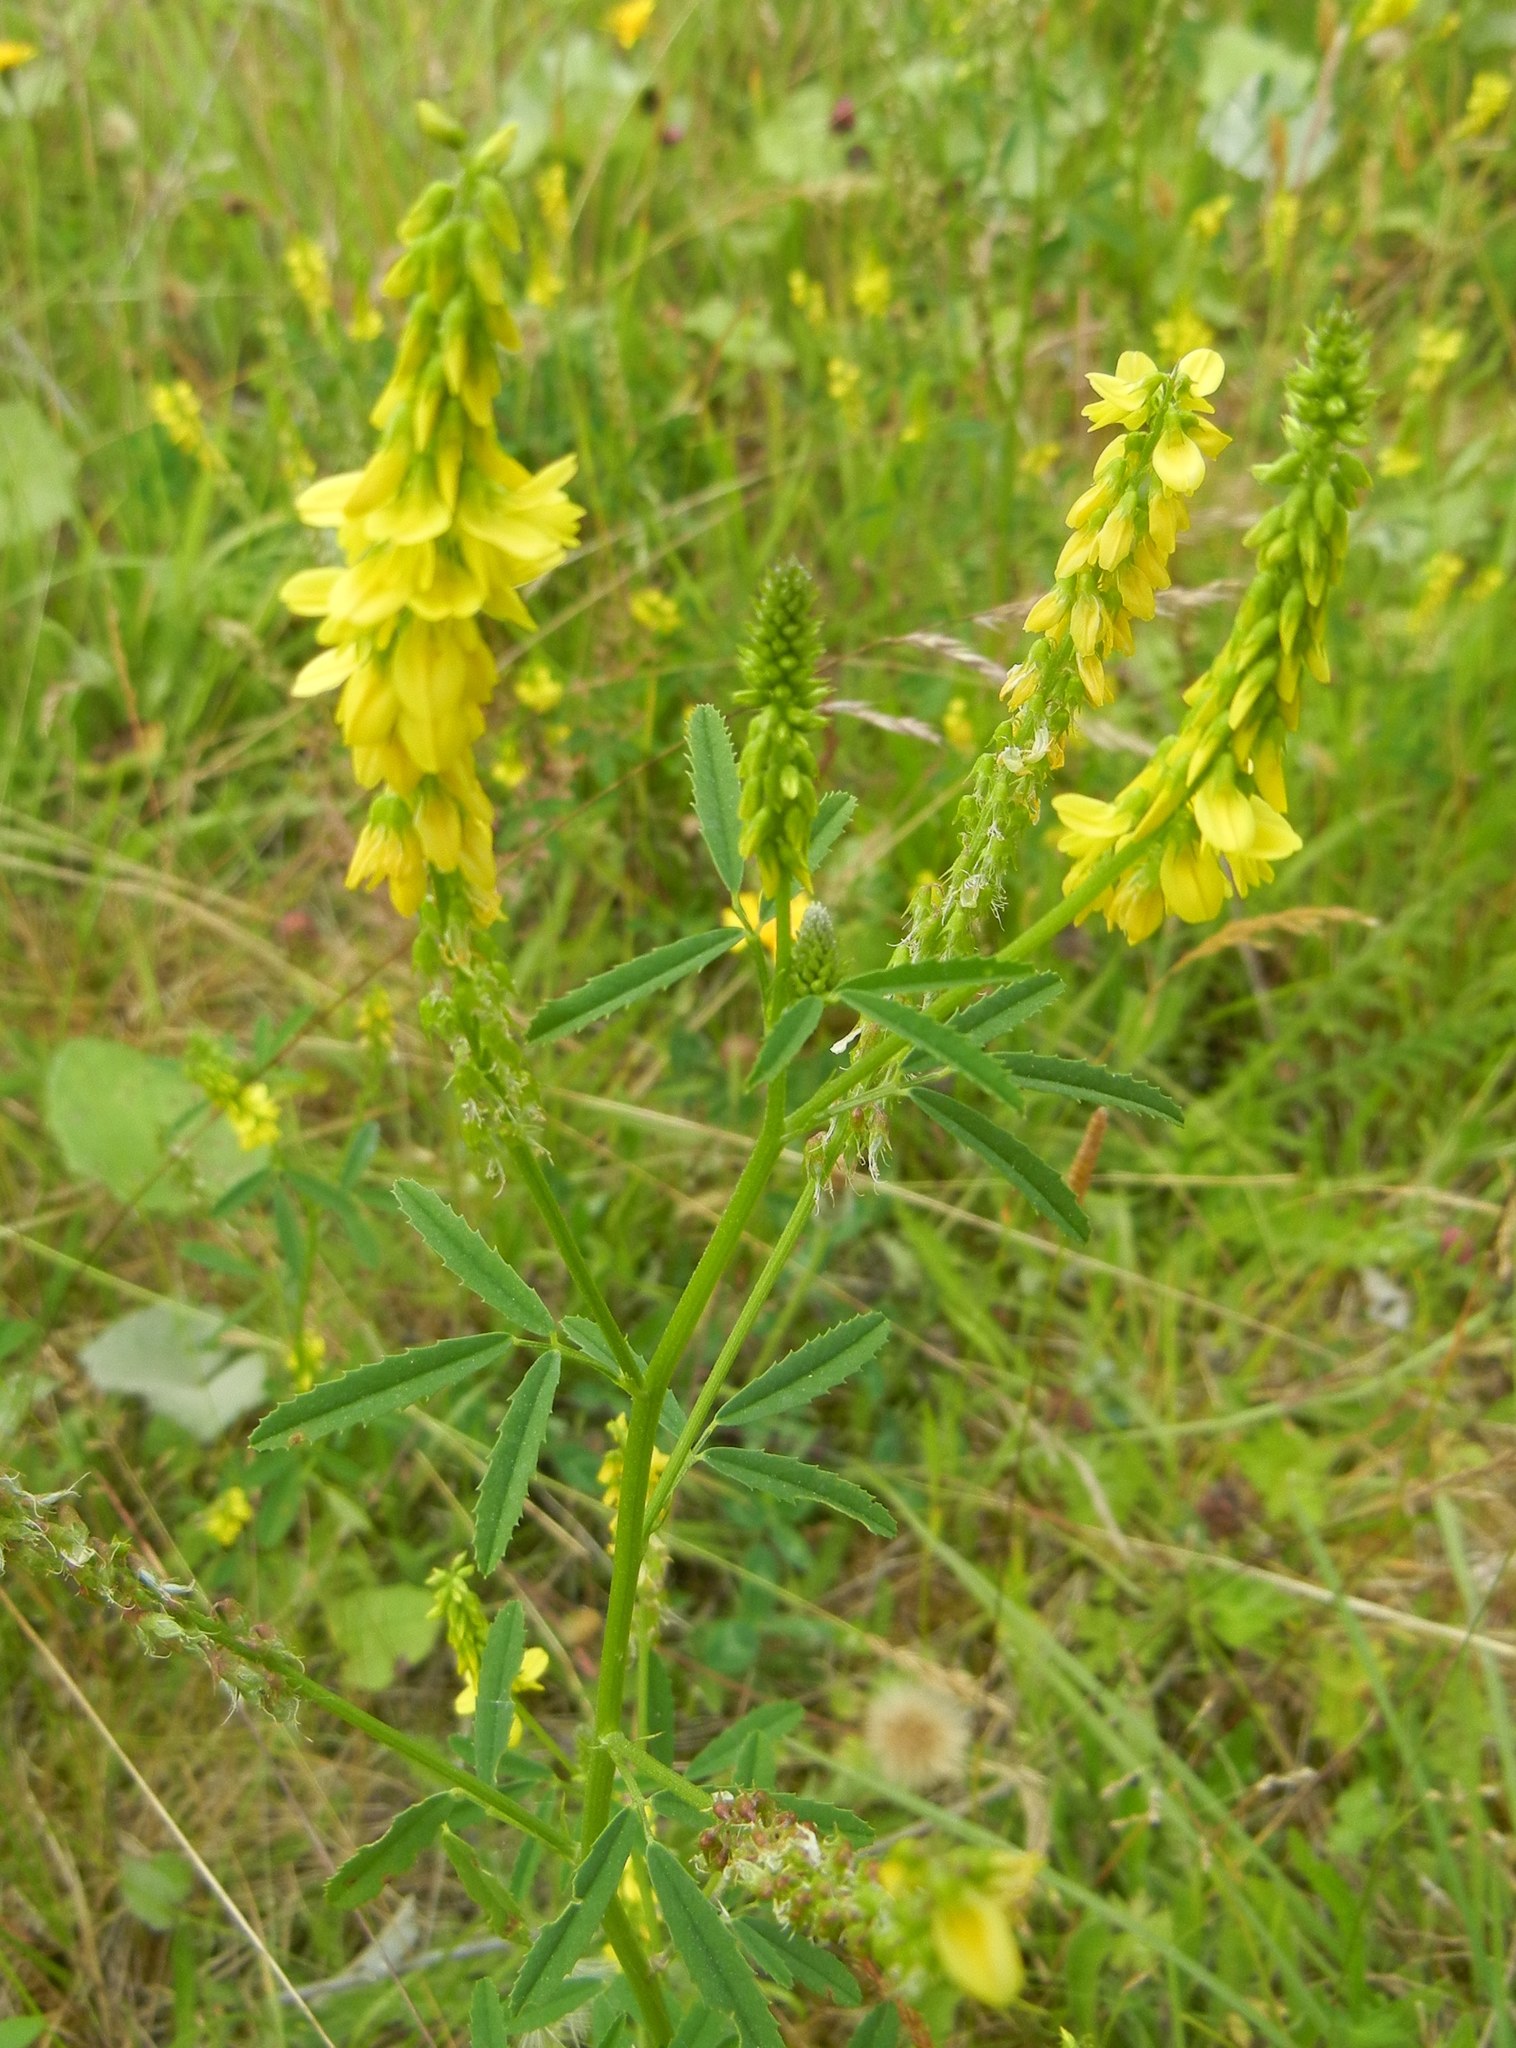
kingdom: Plantae
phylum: Tracheophyta
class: Magnoliopsida
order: Fabales
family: Fabaceae
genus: Melilotus
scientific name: Melilotus altissimus
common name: Tall melilot
